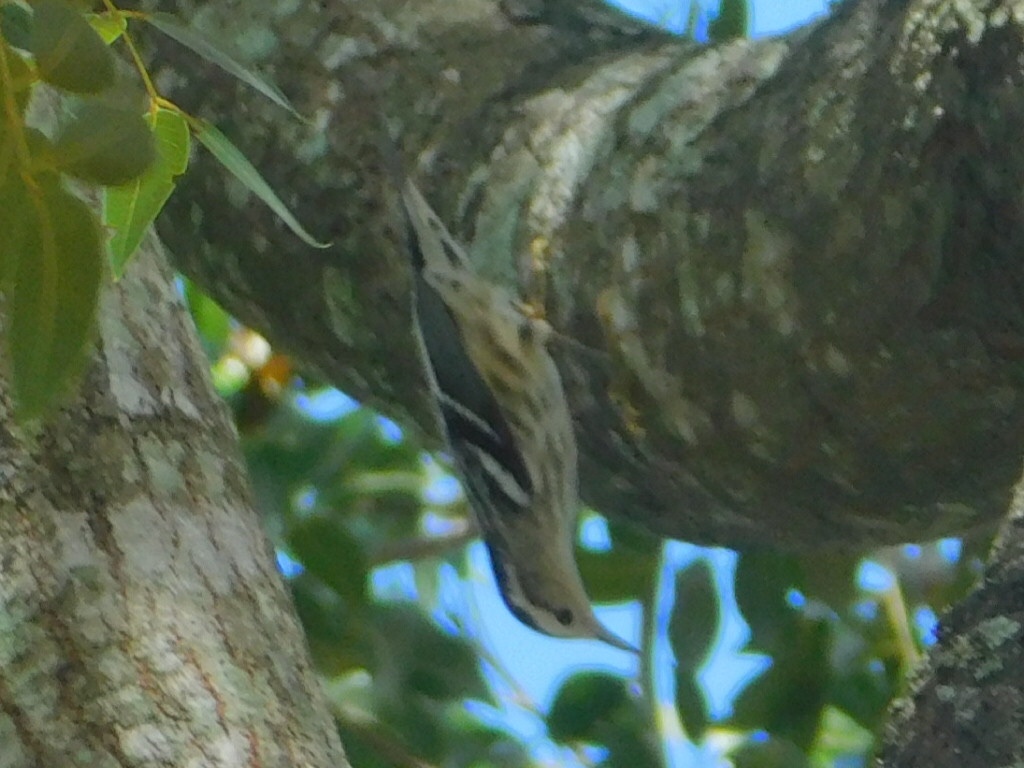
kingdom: Animalia
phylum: Chordata
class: Aves
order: Passeriformes
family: Parulidae
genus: Mniotilta
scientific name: Mniotilta varia
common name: Black-and-white warbler
